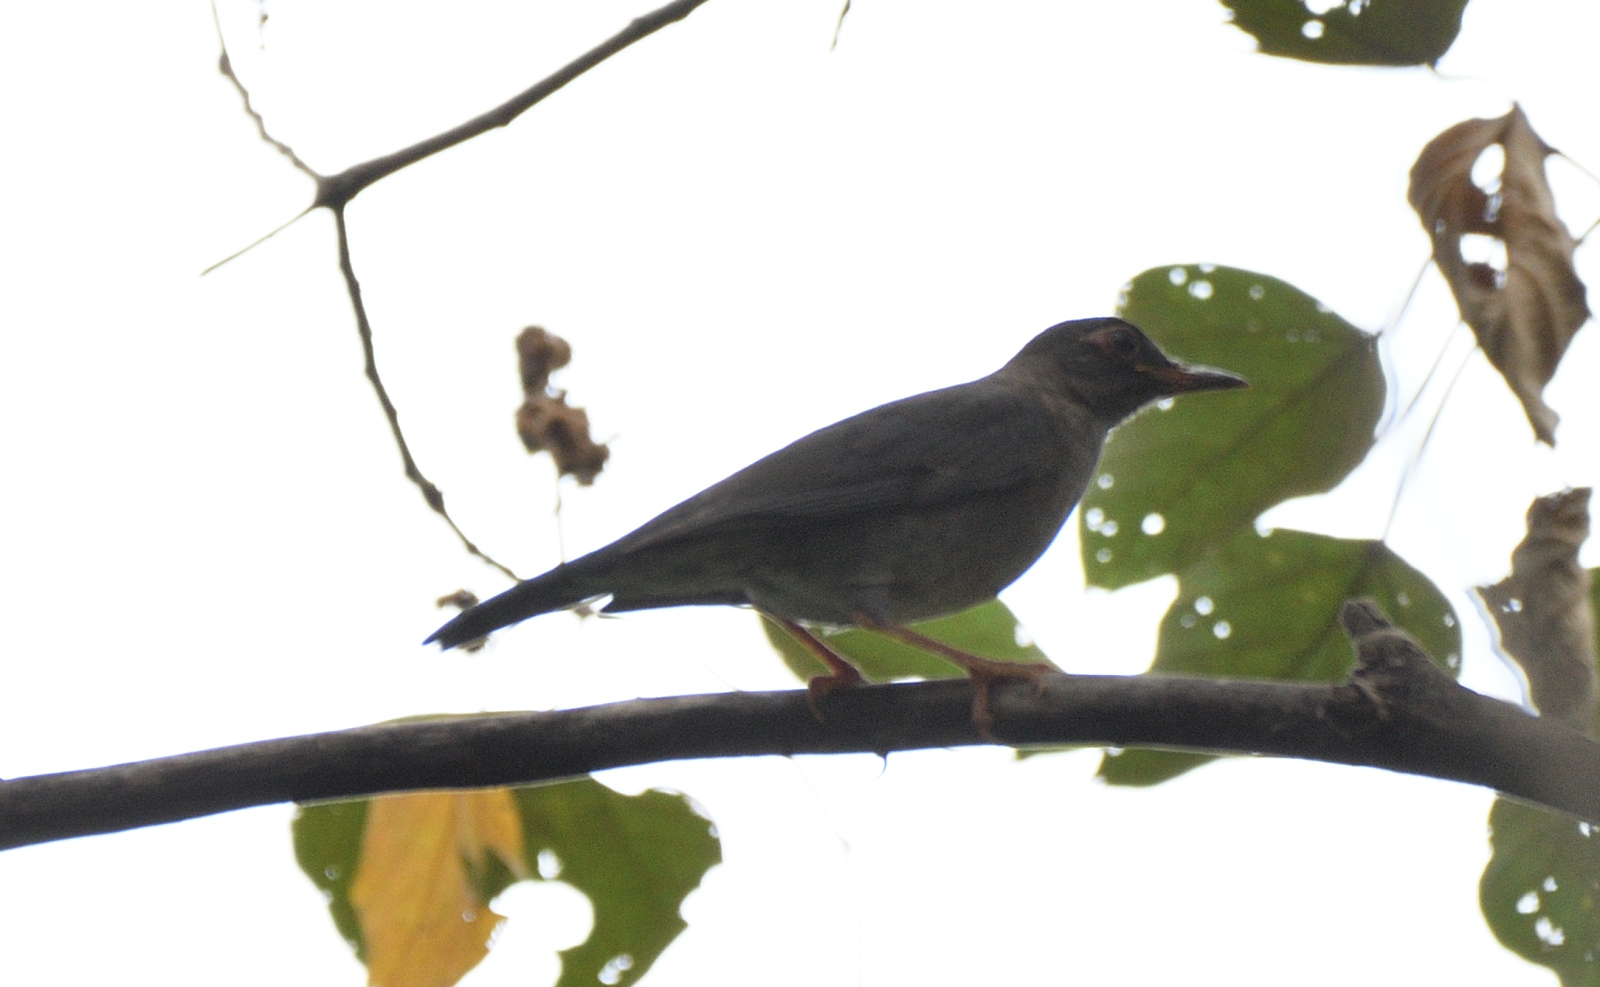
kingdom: Animalia
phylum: Chordata
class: Aves
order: Passeriformes
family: Turdidae
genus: Turdus
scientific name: Turdus simillimus
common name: Indian blackbird
